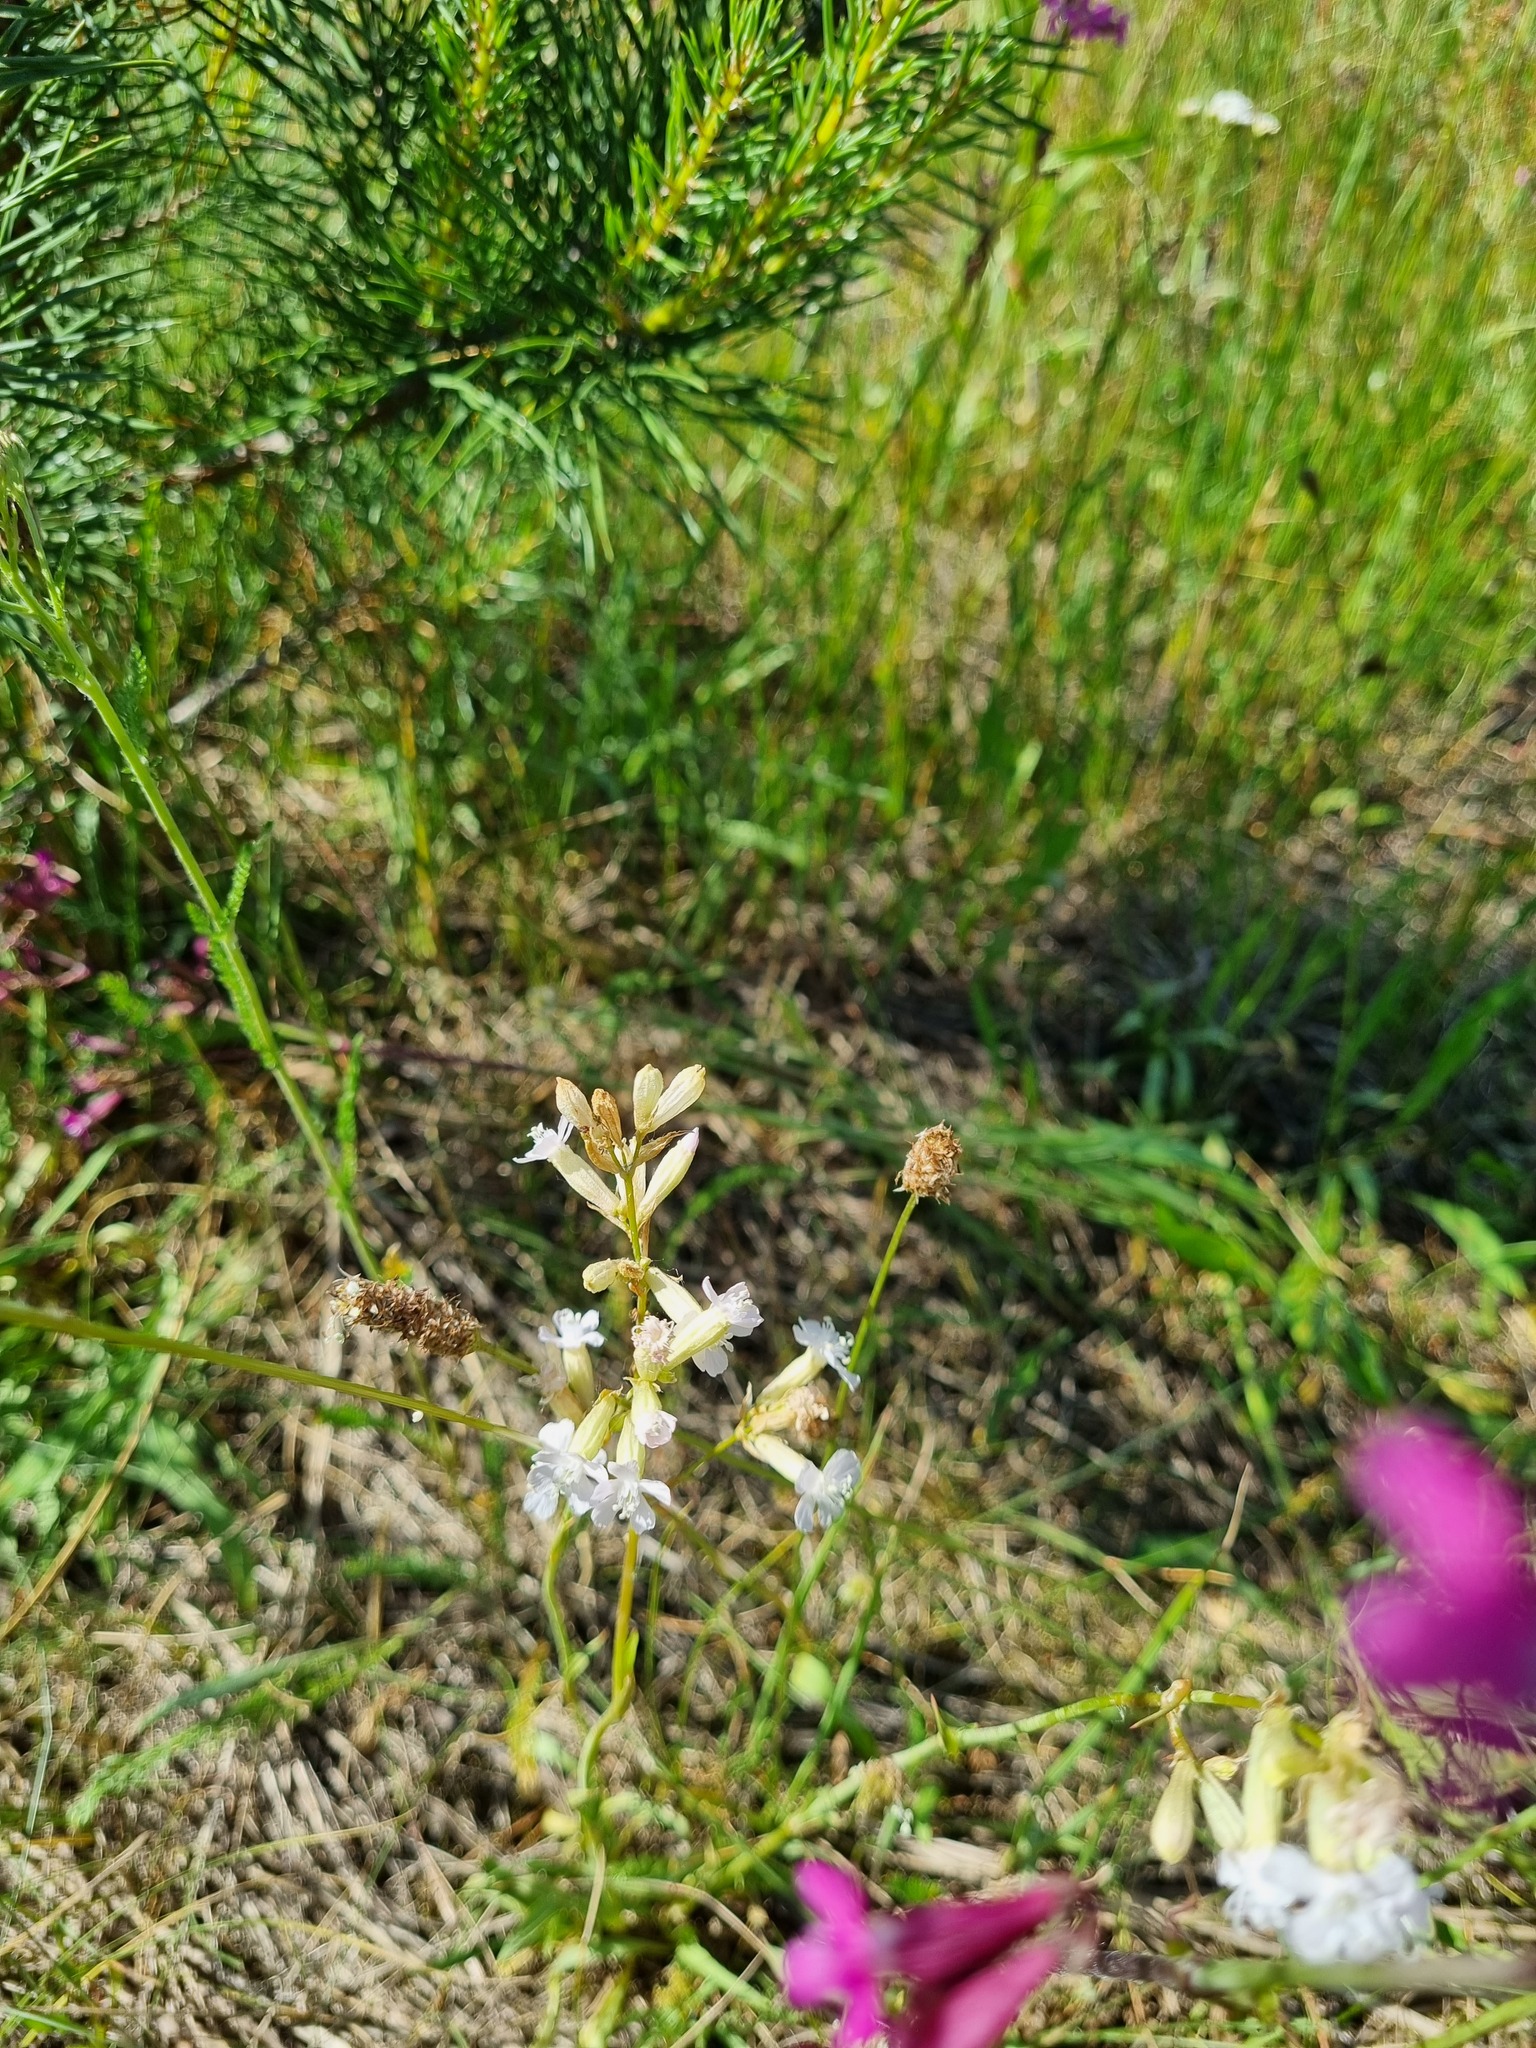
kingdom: Plantae
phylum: Tracheophyta
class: Magnoliopsida
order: Caryophyllales
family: Caryophyllaceae
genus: Viscaria
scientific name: Viscaria vulgaris
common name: Clammy campion
